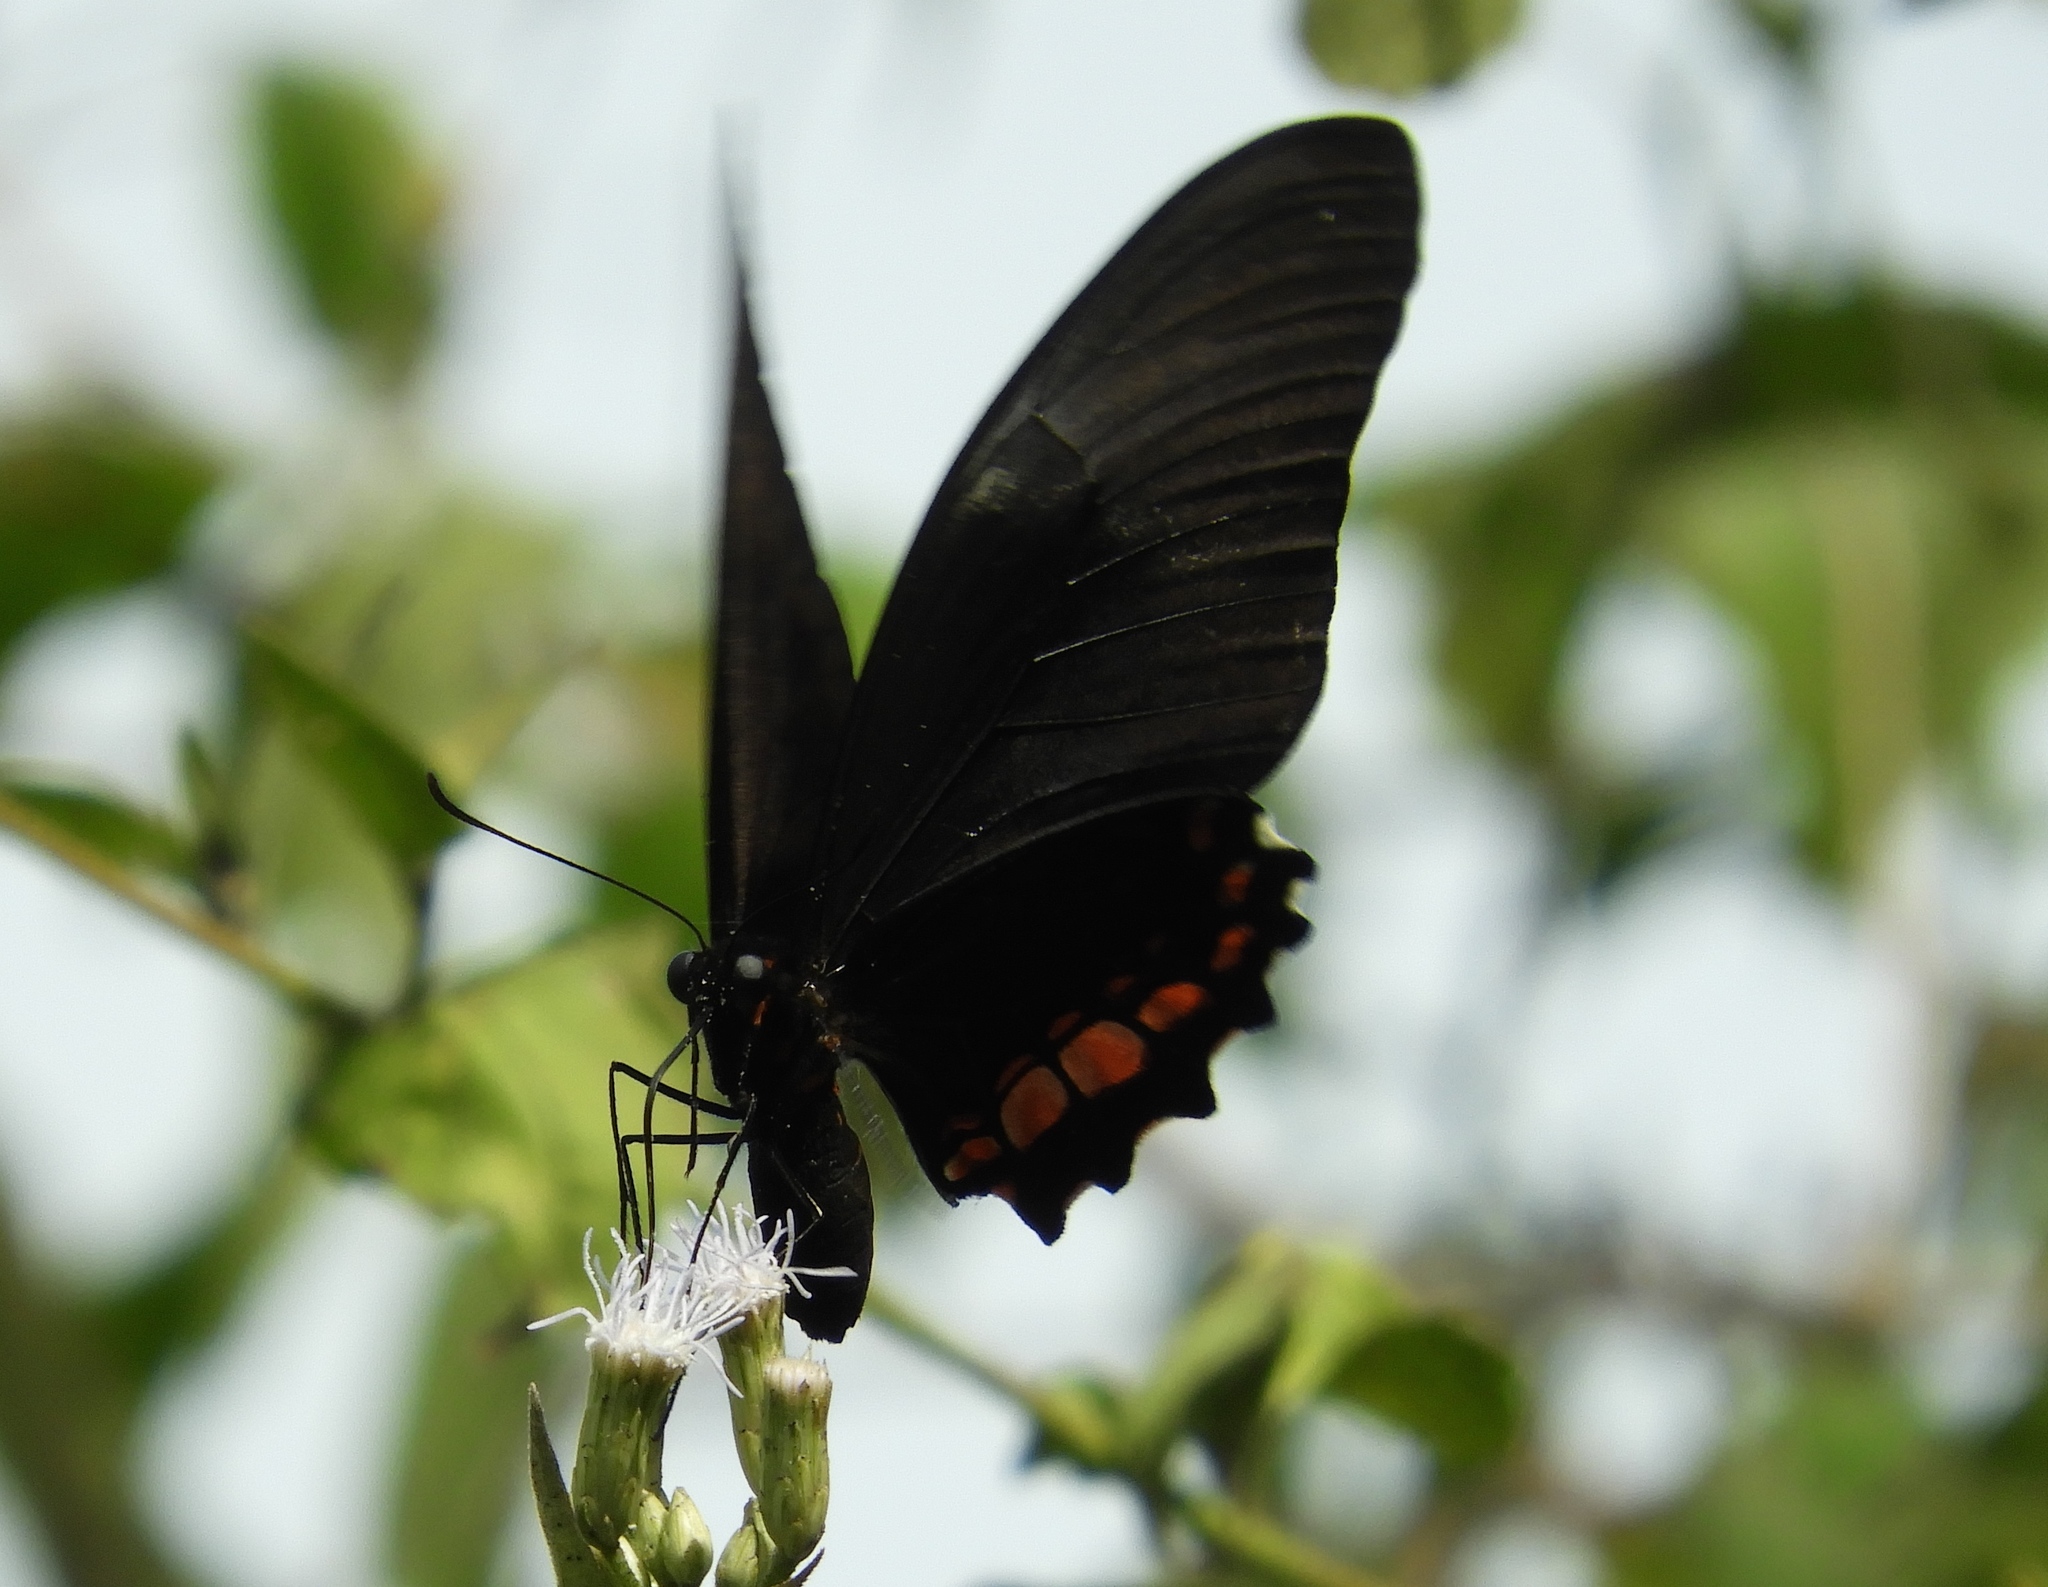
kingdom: Animalia
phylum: Arthropoda
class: Insecta
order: Lepidoptera
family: Papilionidae
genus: Papilio
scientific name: Papilio anchisiades
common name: Idaes swallowtail
